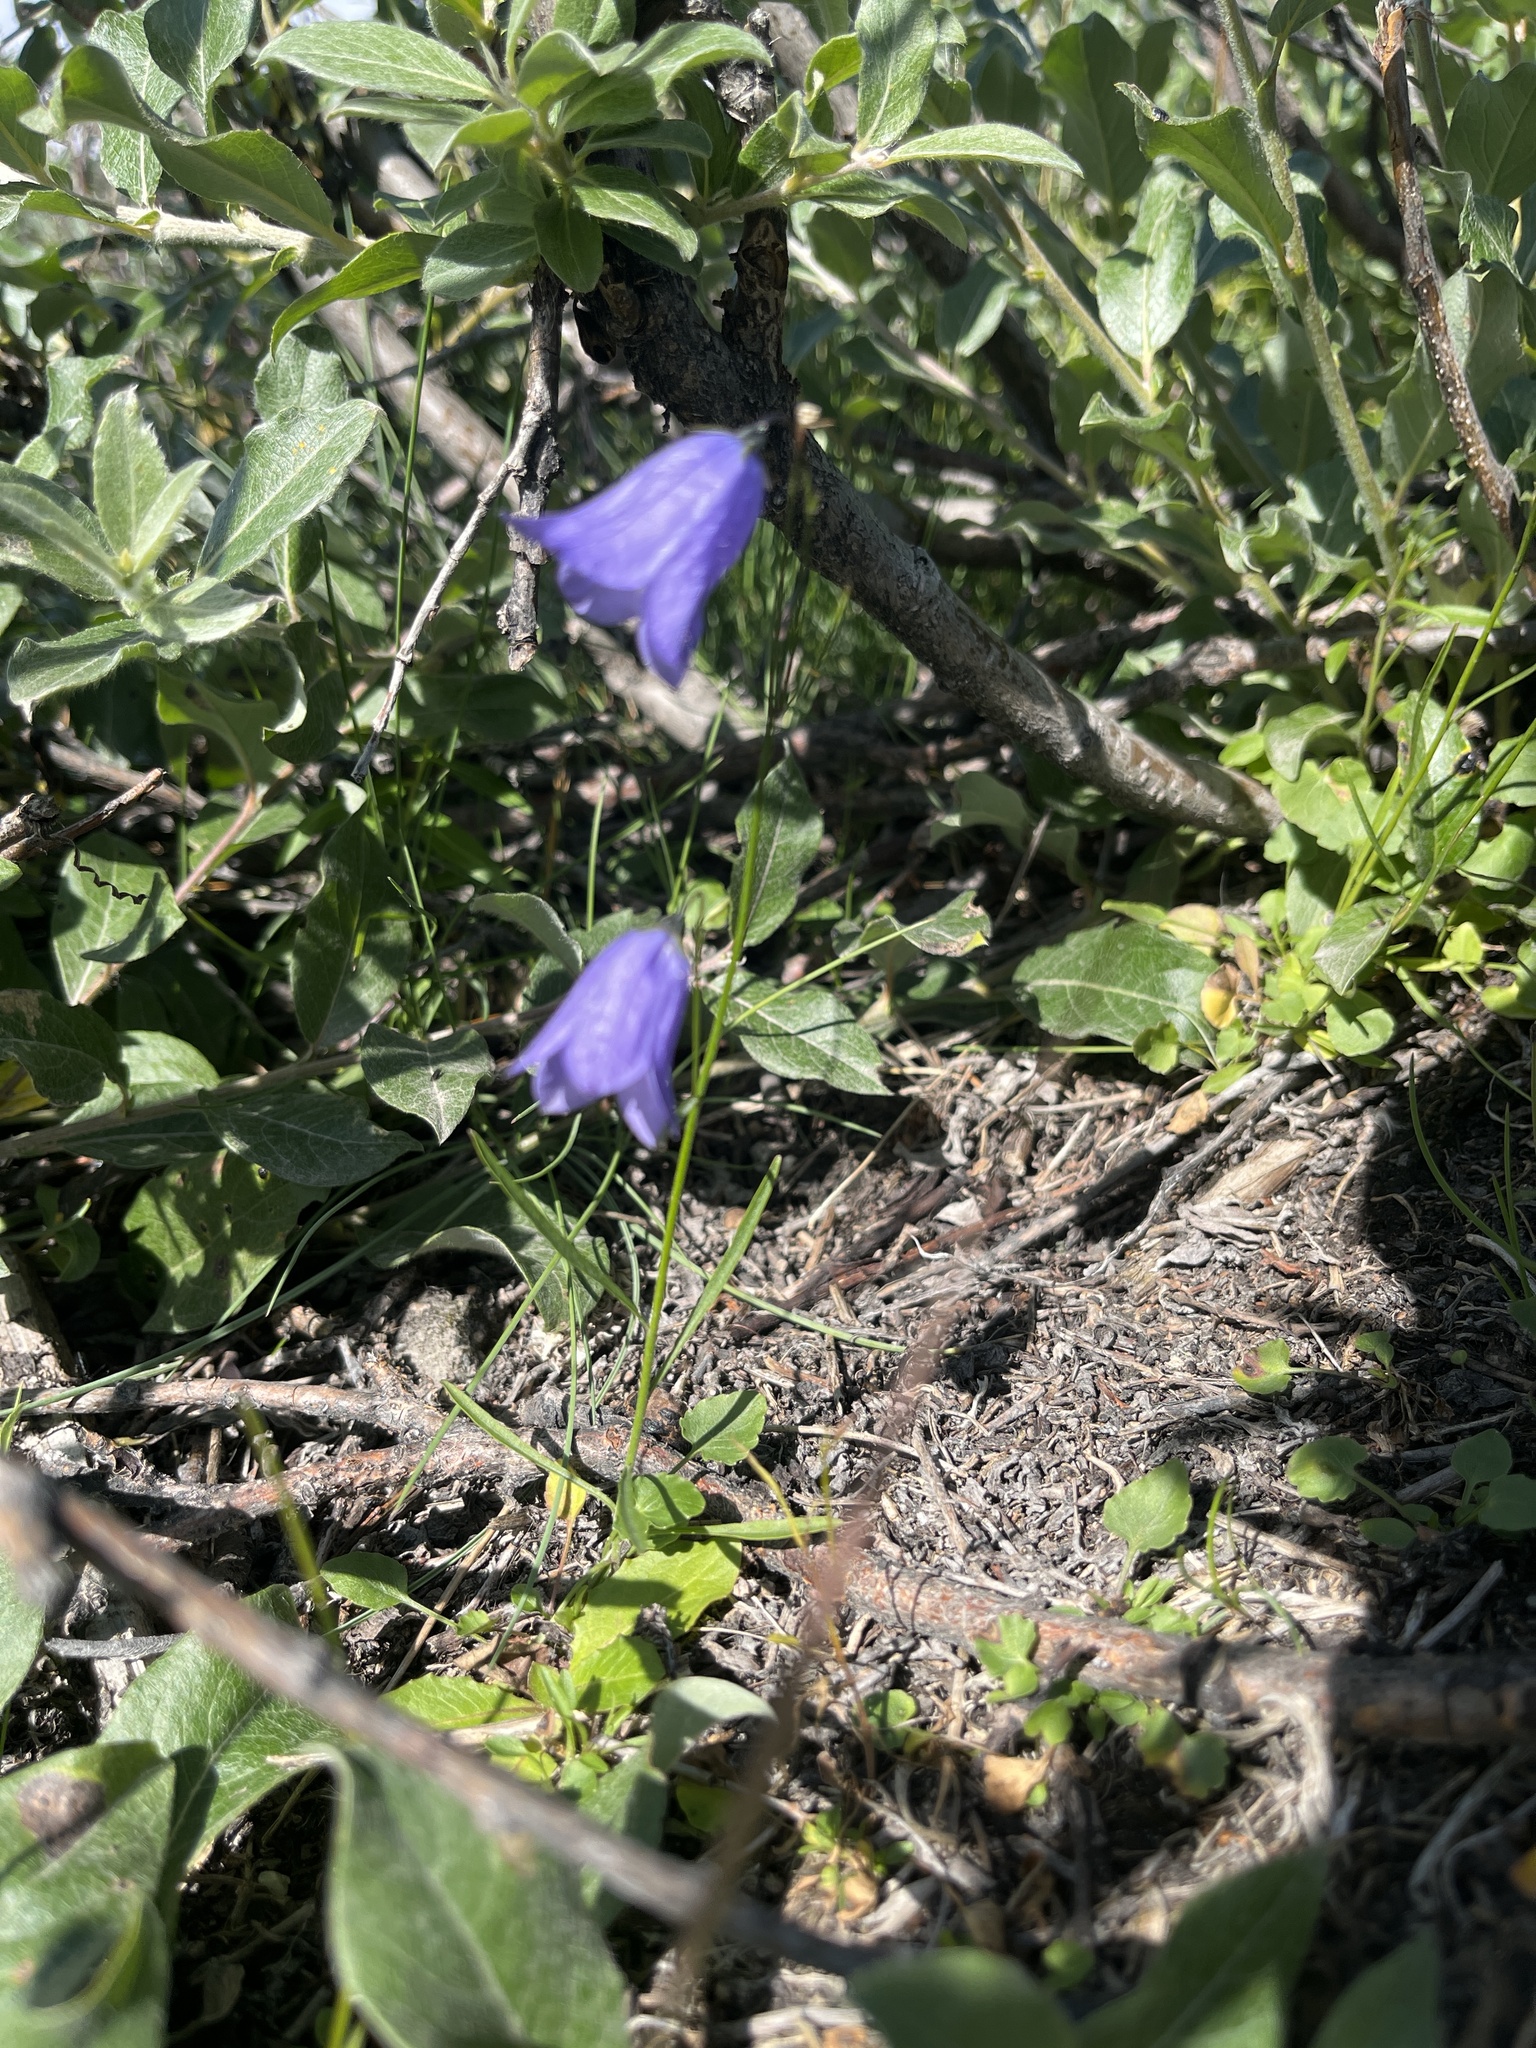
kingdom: Plantae
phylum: Tracheophyta
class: Magnoliopsida
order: Asterales
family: Campanulaceae
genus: Campanula
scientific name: Campanula giesekiana
